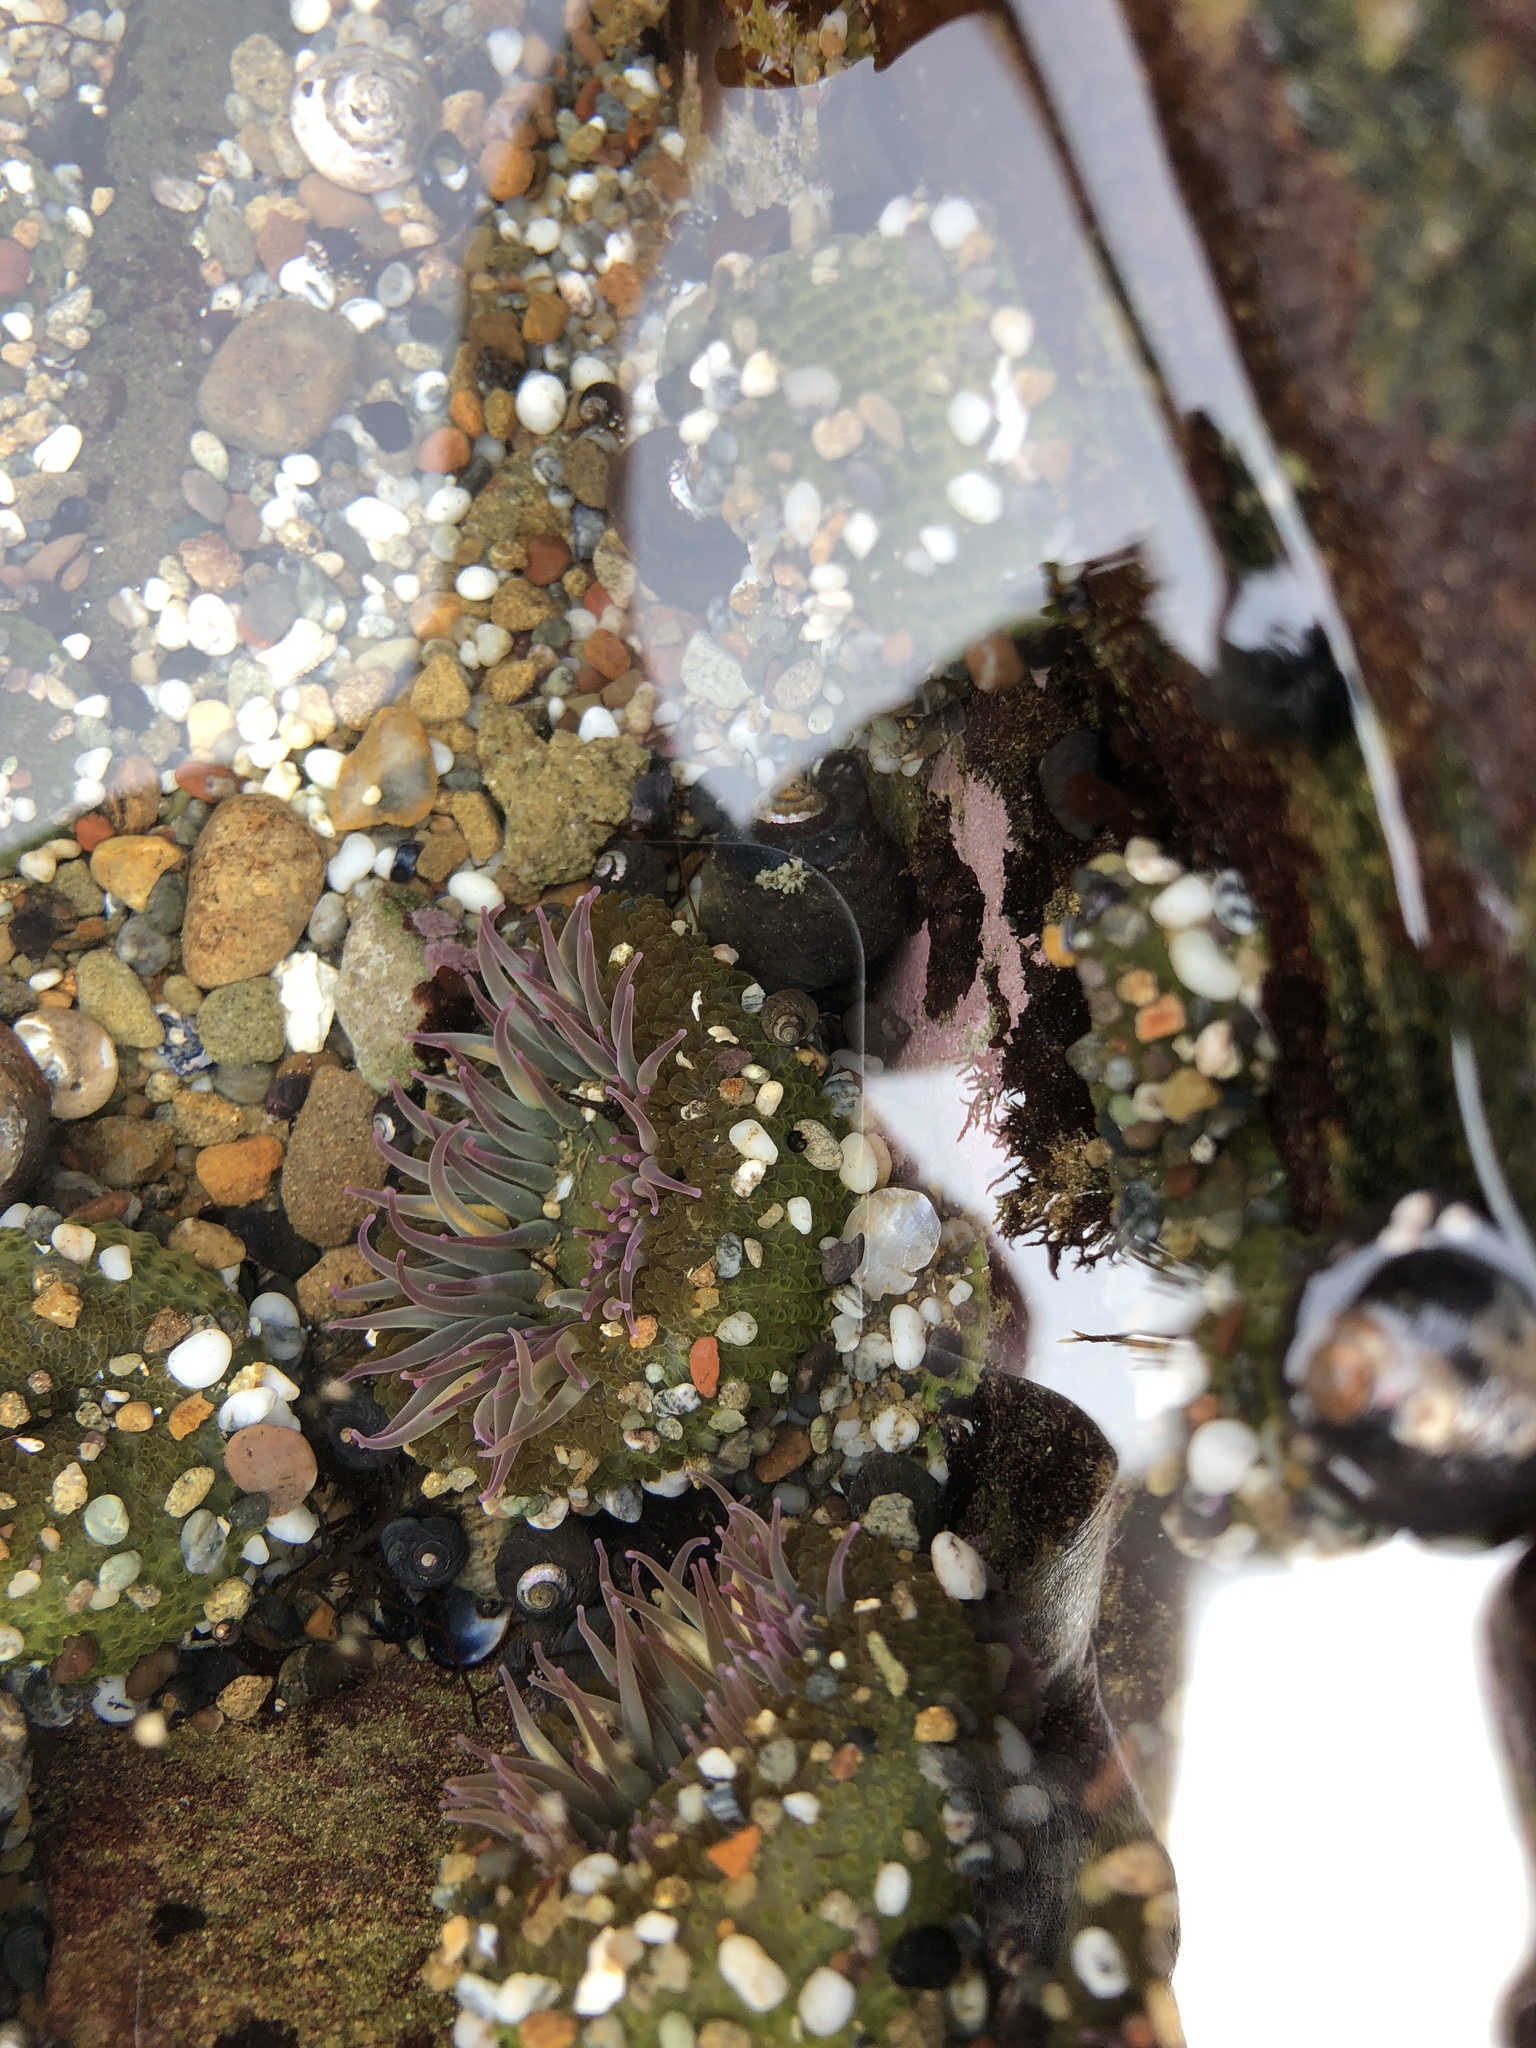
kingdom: Animalia
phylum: Cnidaria
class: Anthozoa
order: Actiniaria
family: Actiniidae
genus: Anthopleura
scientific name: Anthopleura elegantissima
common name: Clonal anemone
